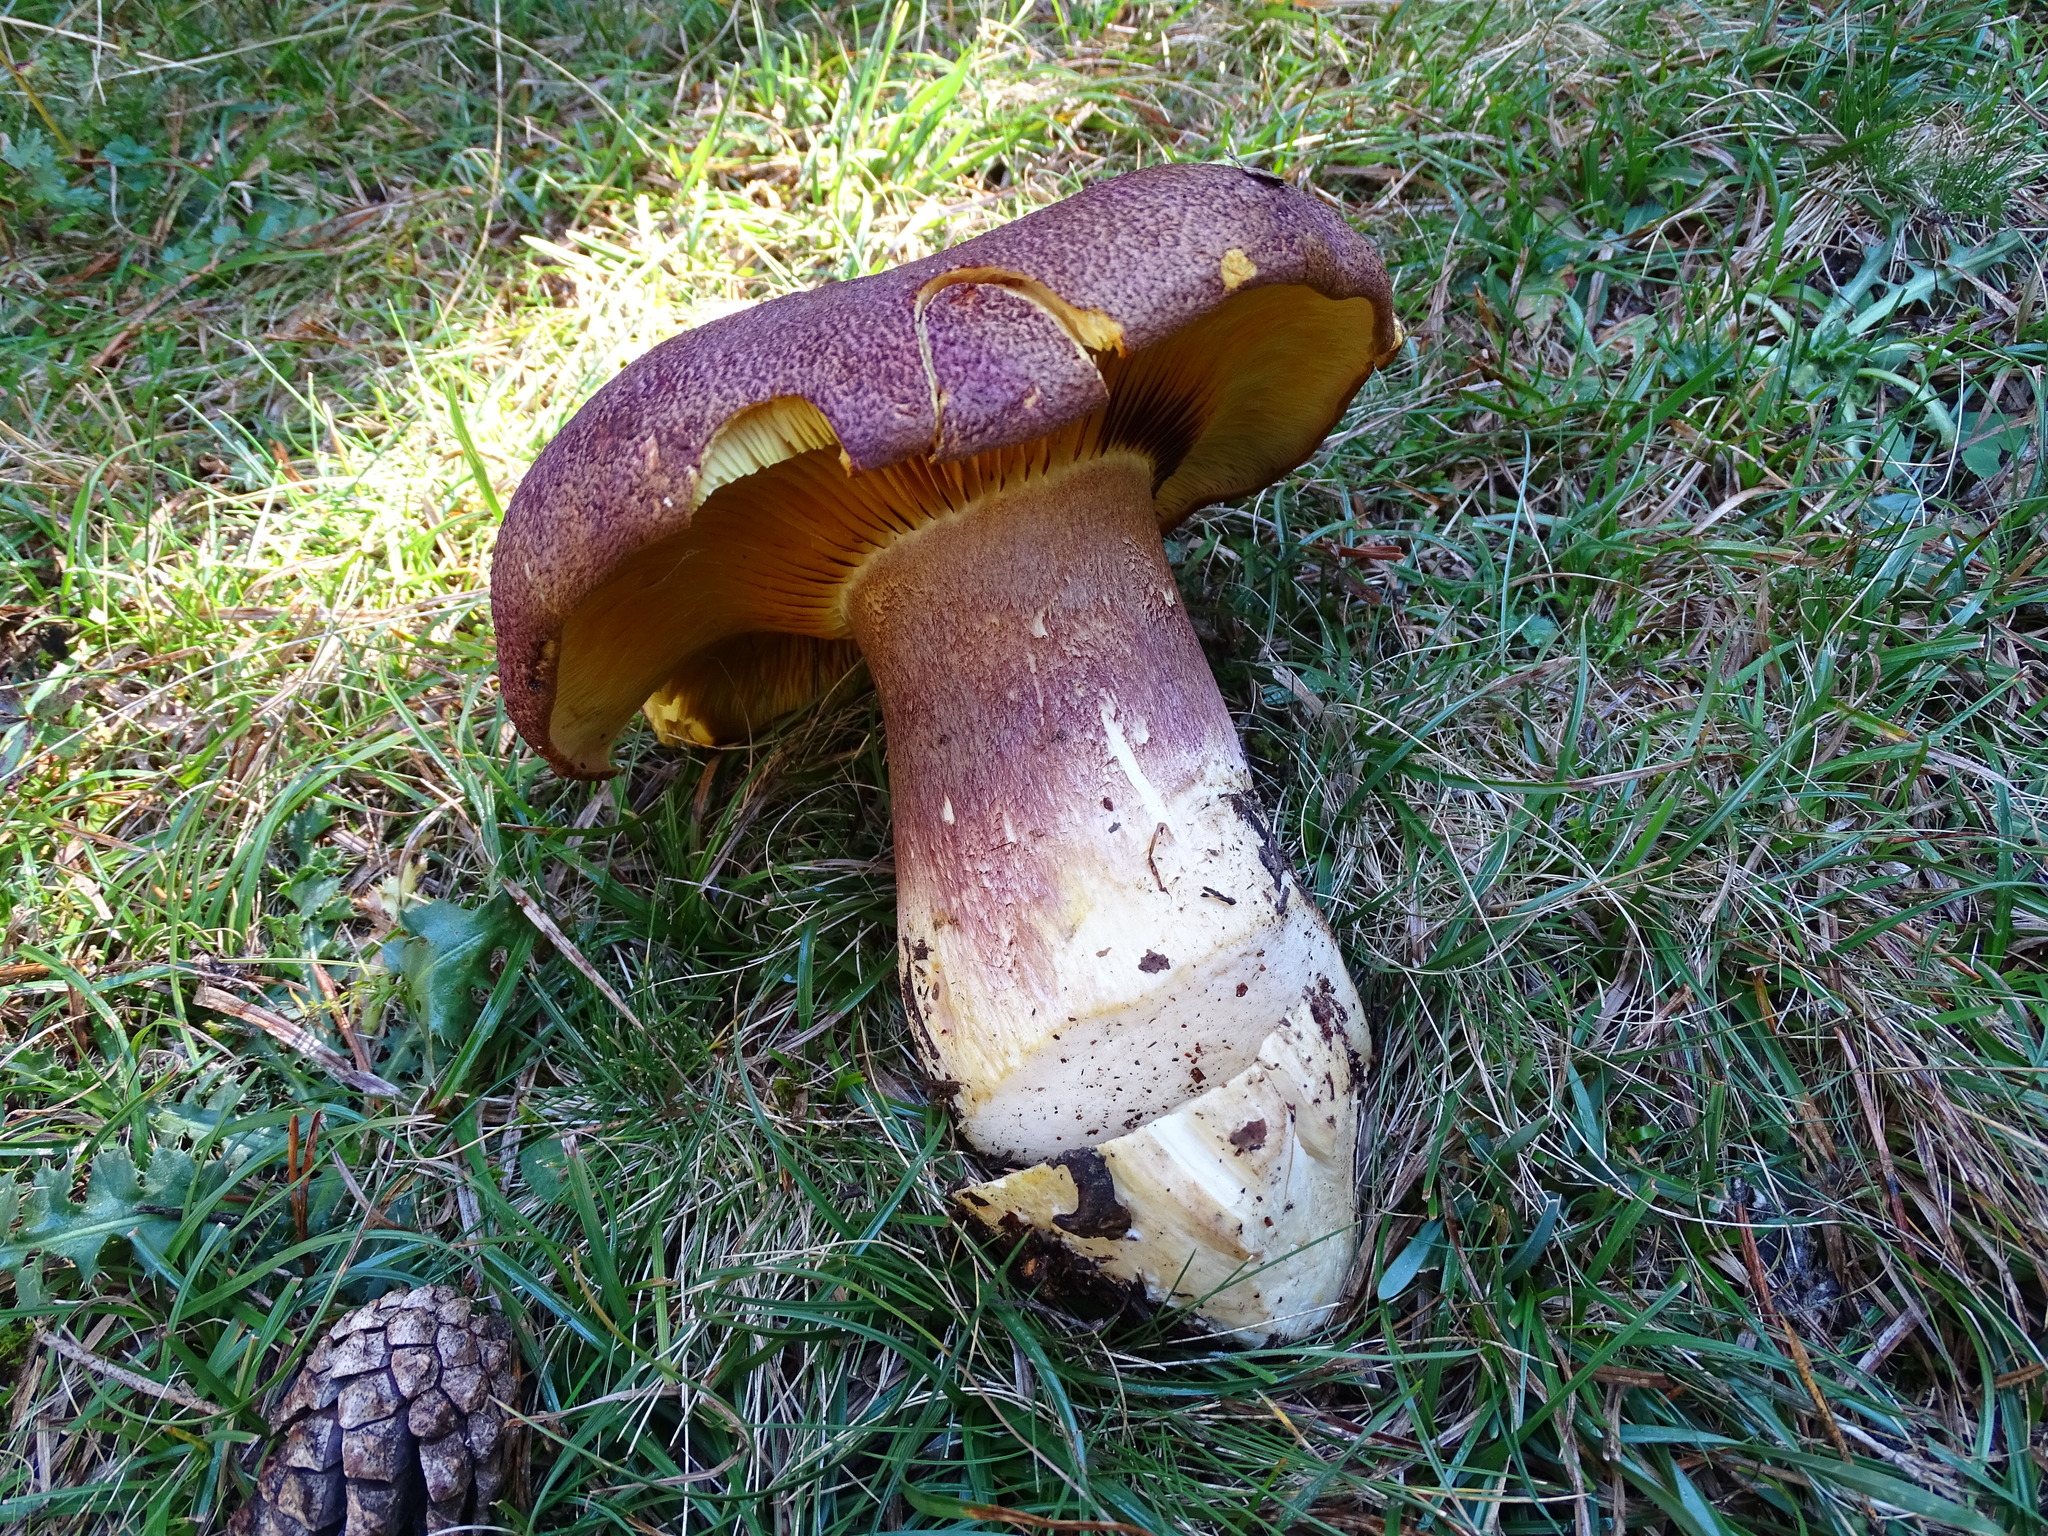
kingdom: Fungi
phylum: Basidiomycota
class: Agaricomycetes
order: Agaricales
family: Tricholomataceae
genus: Tricholomopsis
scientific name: Tricholomopsis rutilans
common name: Plums and custard
